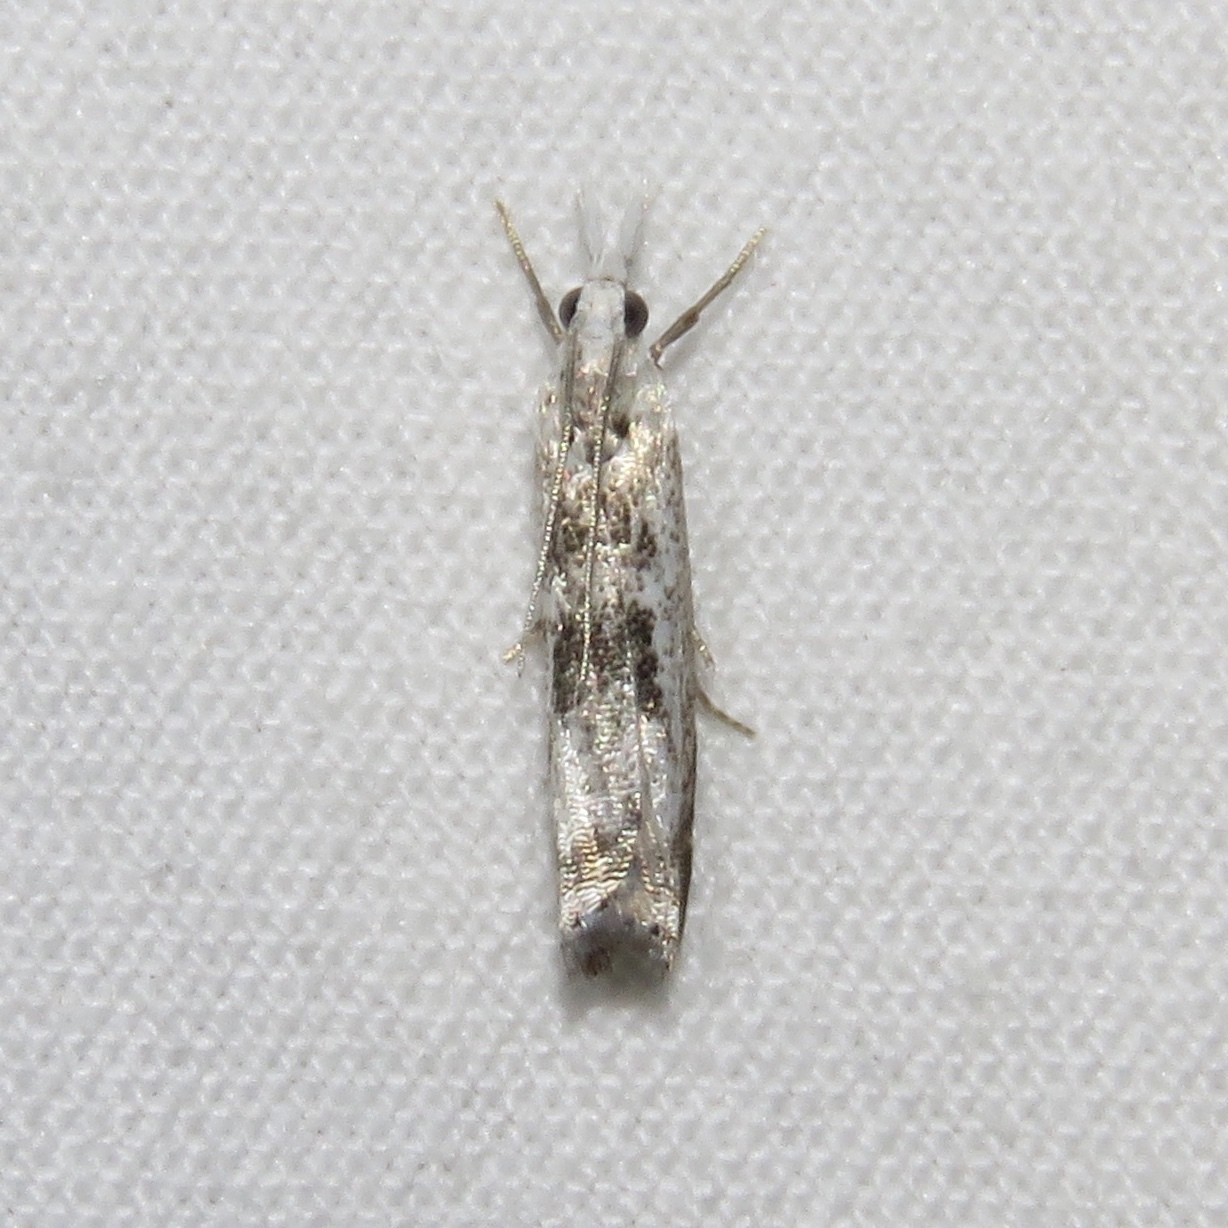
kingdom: Animalia
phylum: Arthropoda
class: Insecta
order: Lepidoptera
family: Crambidae
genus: Microcrambus
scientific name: Microcrambus elegans
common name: Elegant grass-veneer
